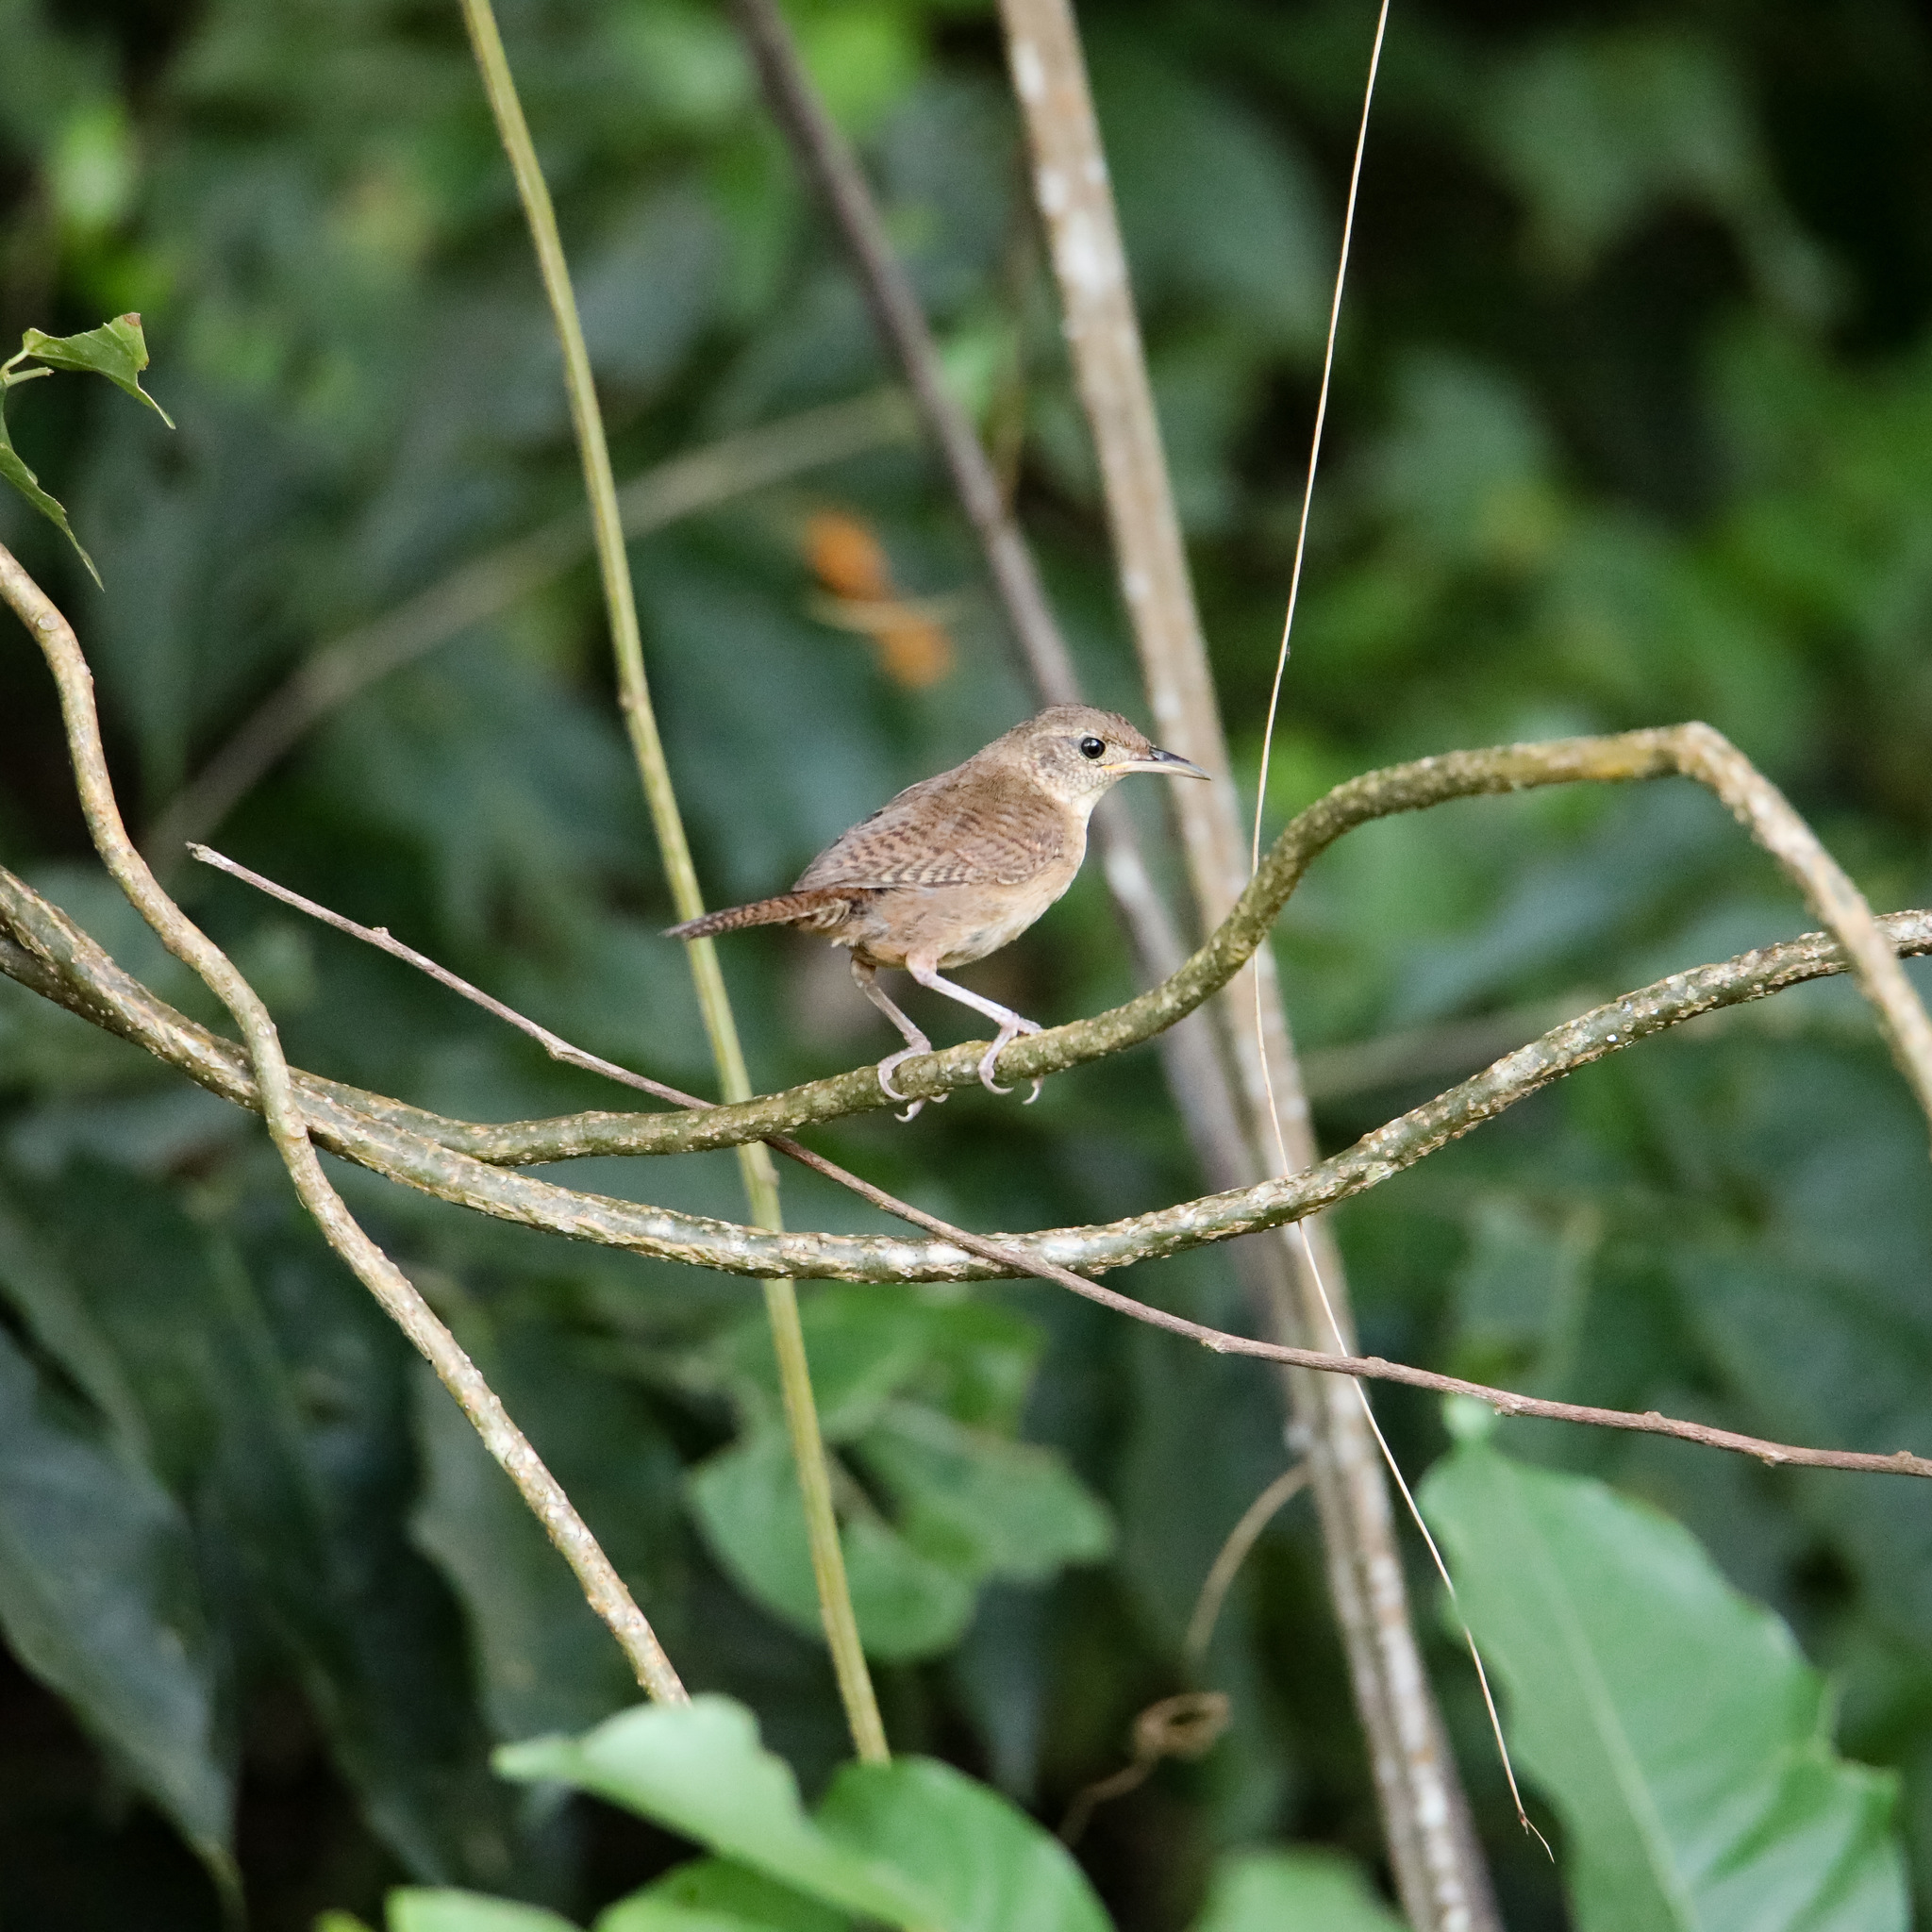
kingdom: Animalia
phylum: Chordata
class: Aves
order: Passeriformes
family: Troglodytidae
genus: Troglodytes
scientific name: Troglodytes aedon
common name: House wren
